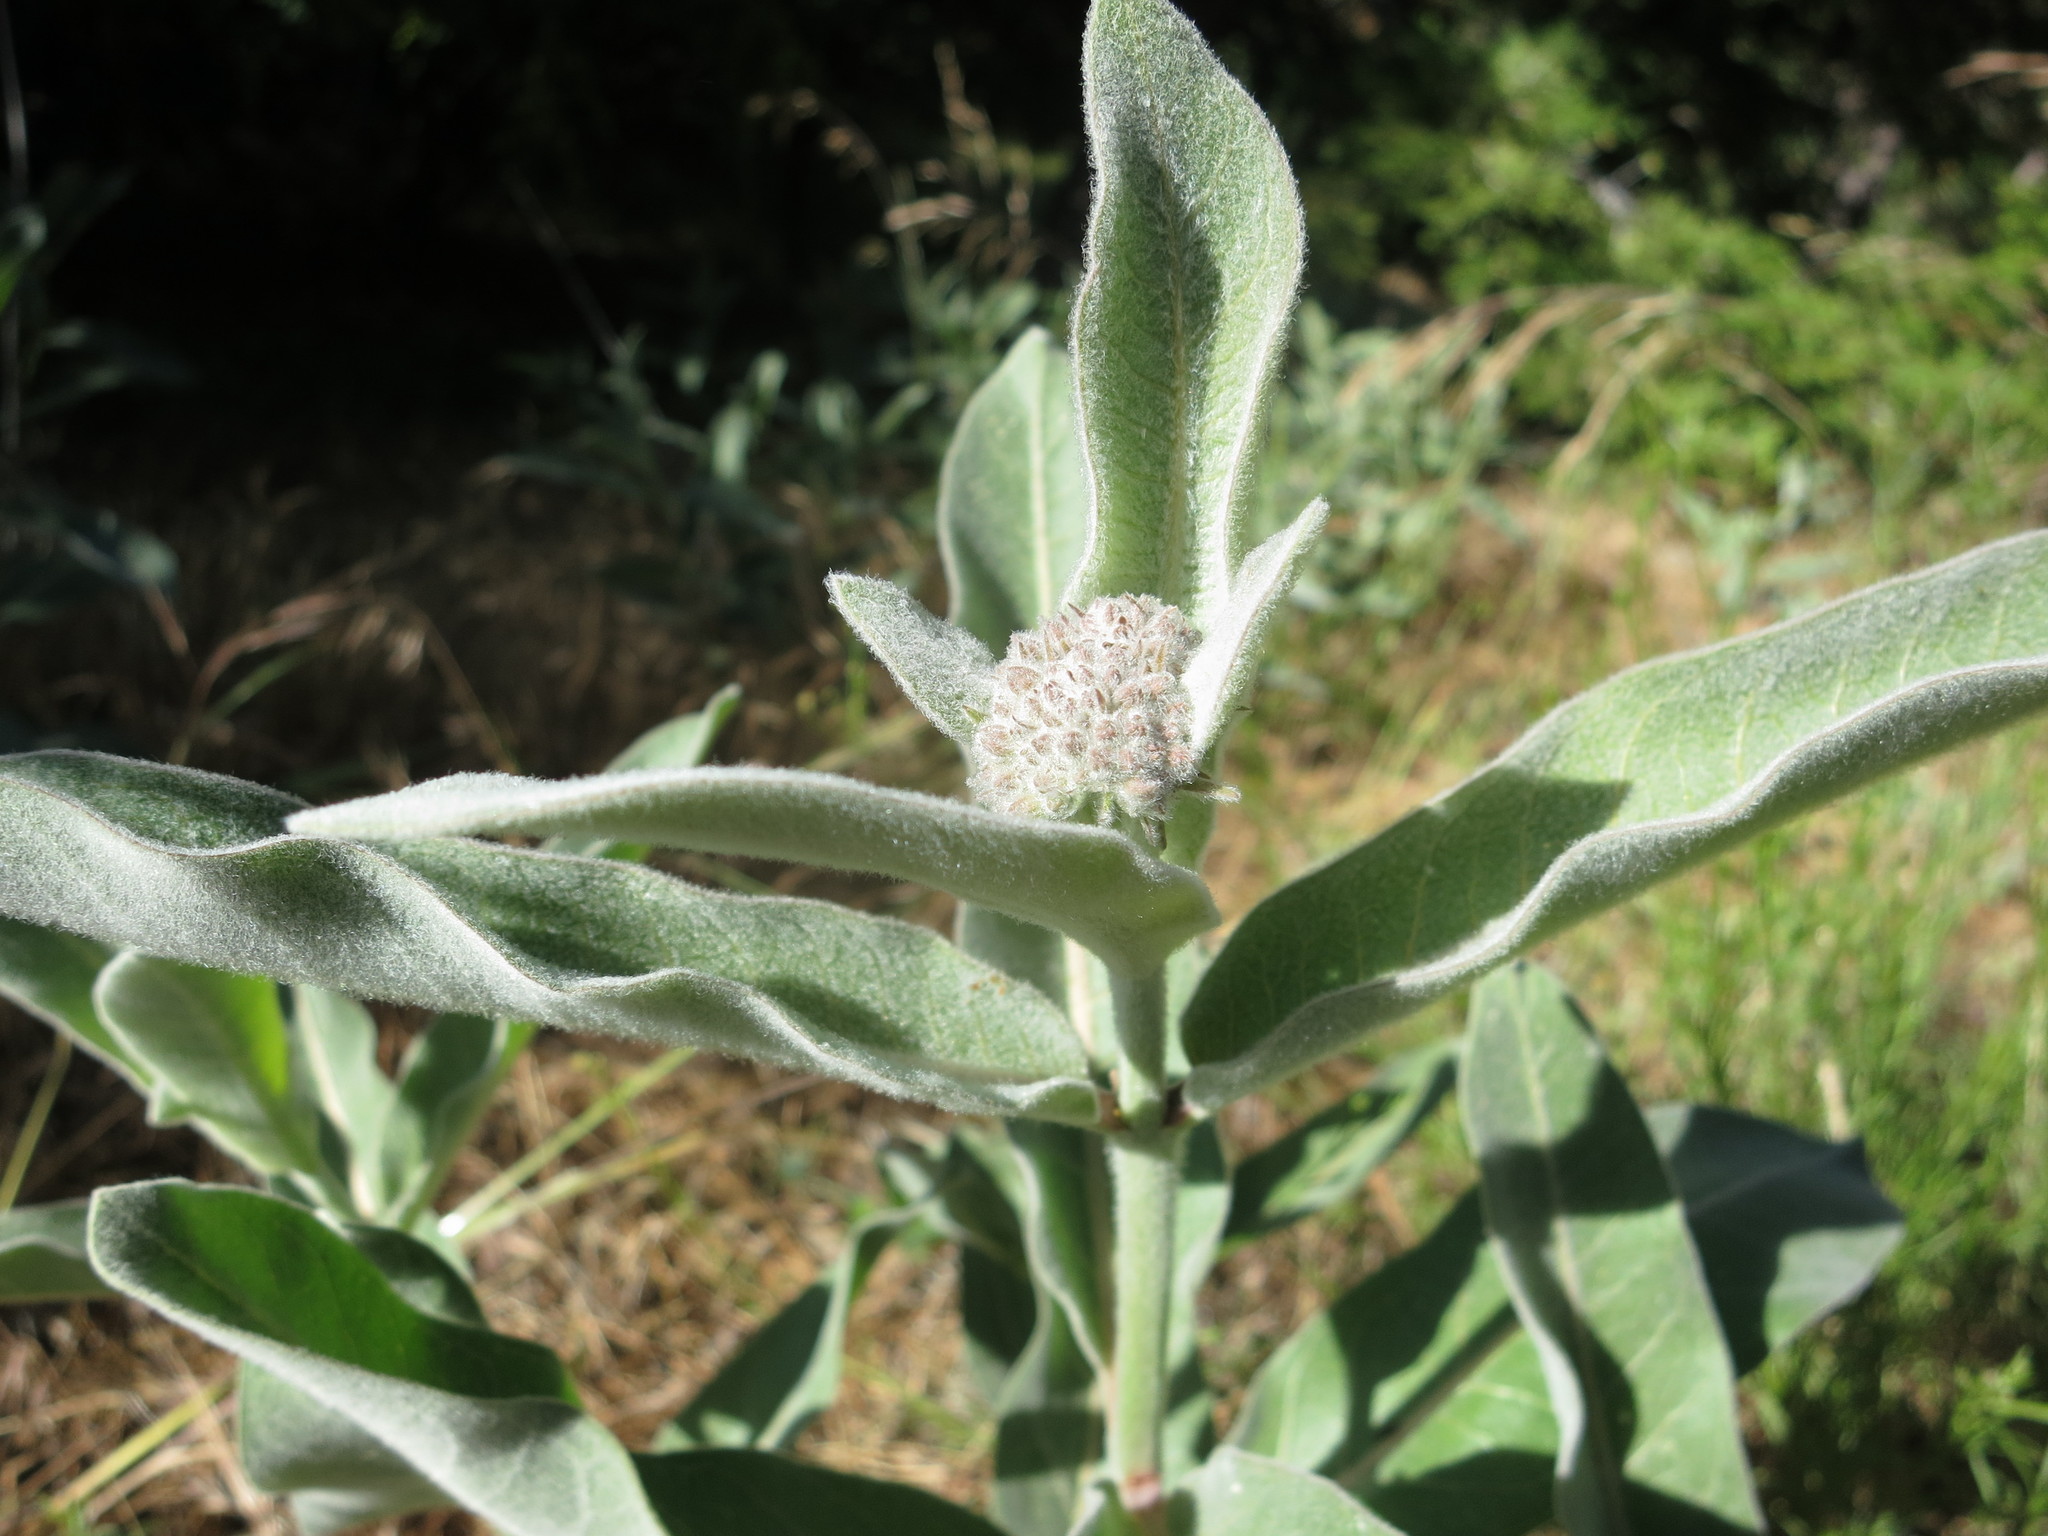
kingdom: Plantae
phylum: Tracheophyta
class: Magnoliopsida
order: Gentianales
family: Apocynaceae
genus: Asclepias
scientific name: Asclepias eriocarpa
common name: Indian milkweed
